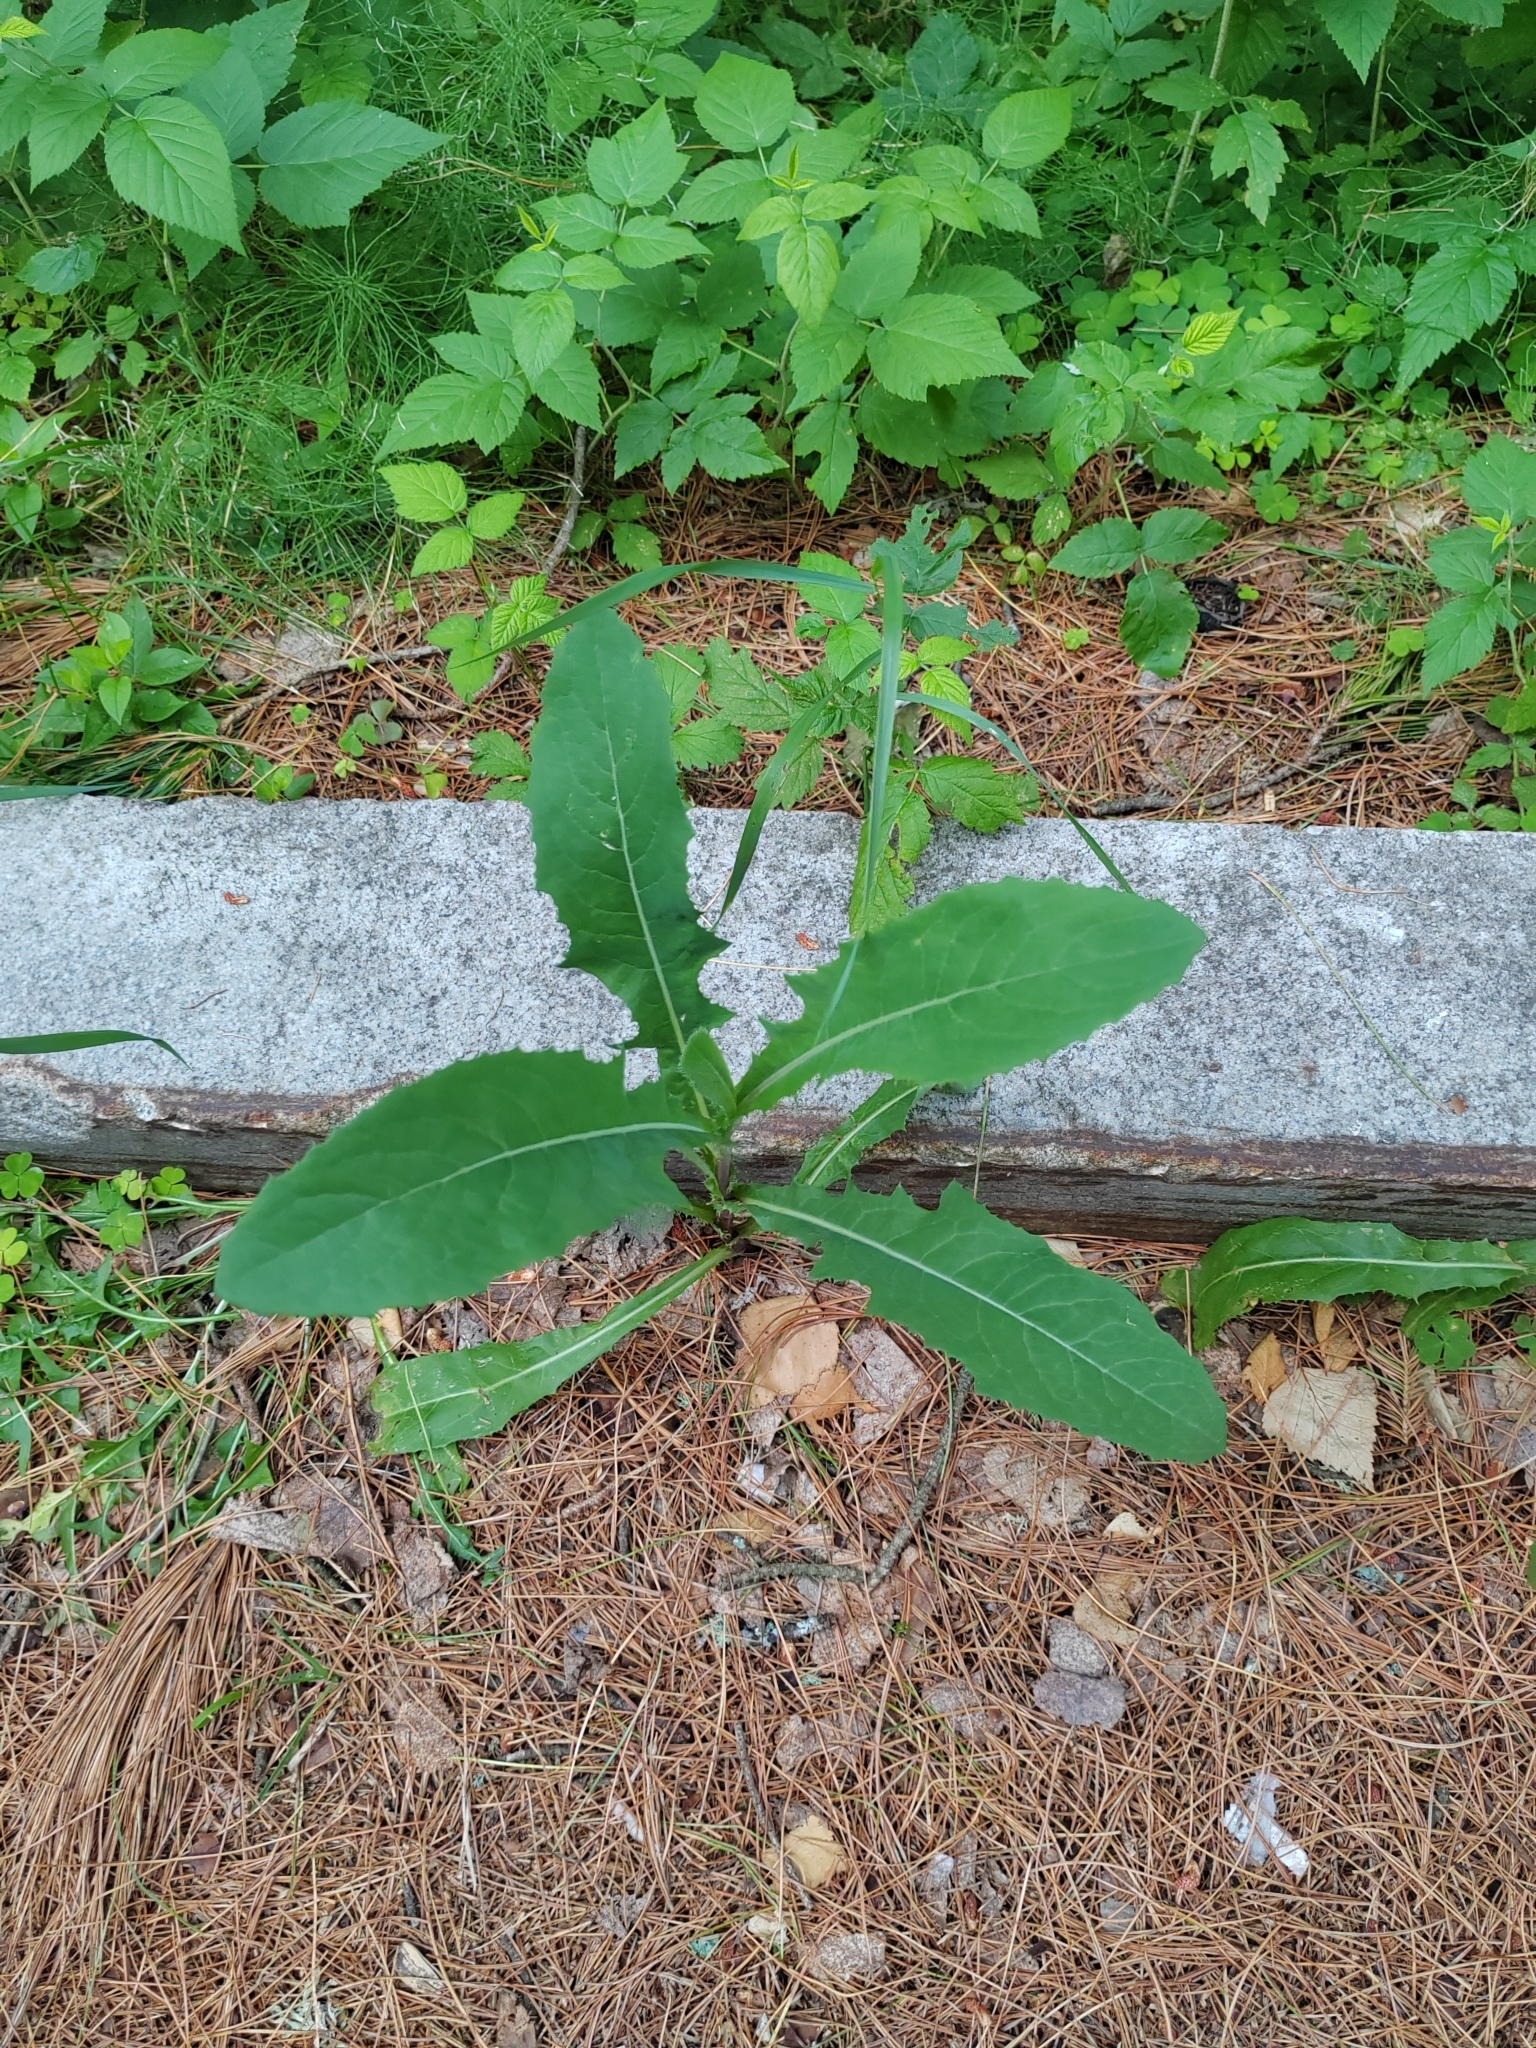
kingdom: Plantae
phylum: Tracheophyta
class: Magnoliopsida
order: Asterales
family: Asteraceae
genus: Sonchus
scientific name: Sonchus arvensis
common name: Perennial sow-thistle
